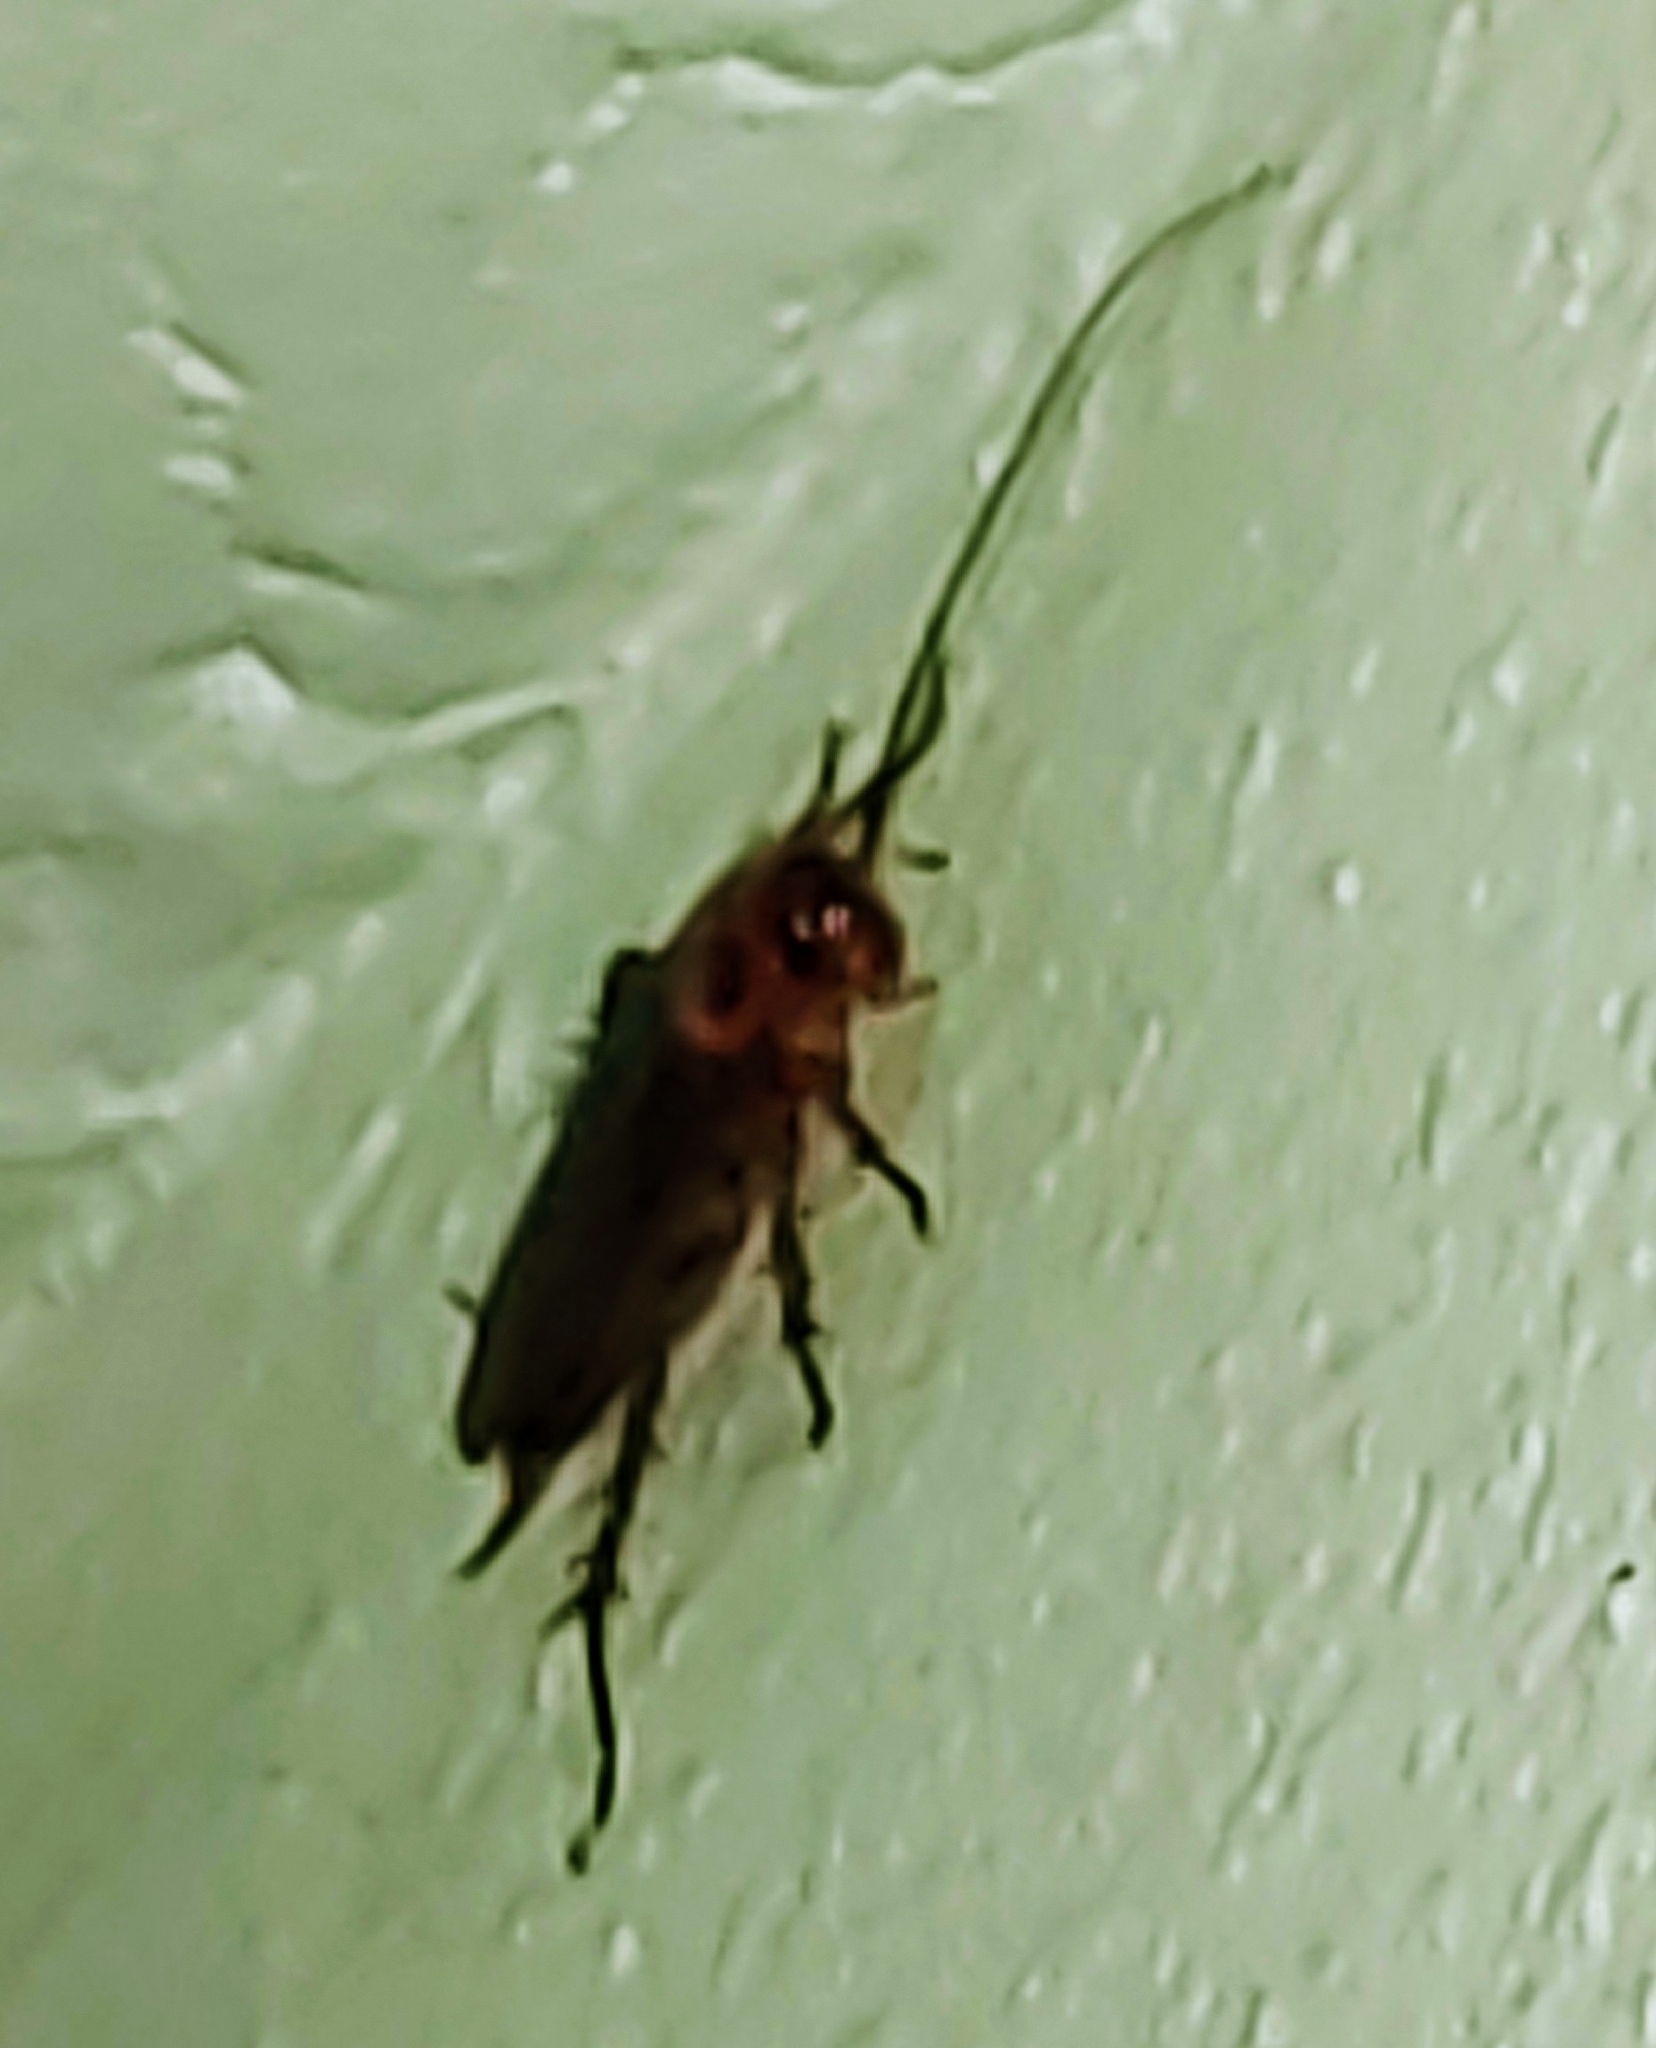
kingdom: Animalia
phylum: Arthropoda
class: Insecta
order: Blattodea
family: Blattidae
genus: Periplaneta
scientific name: Periplaneta americana
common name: American cockroach
